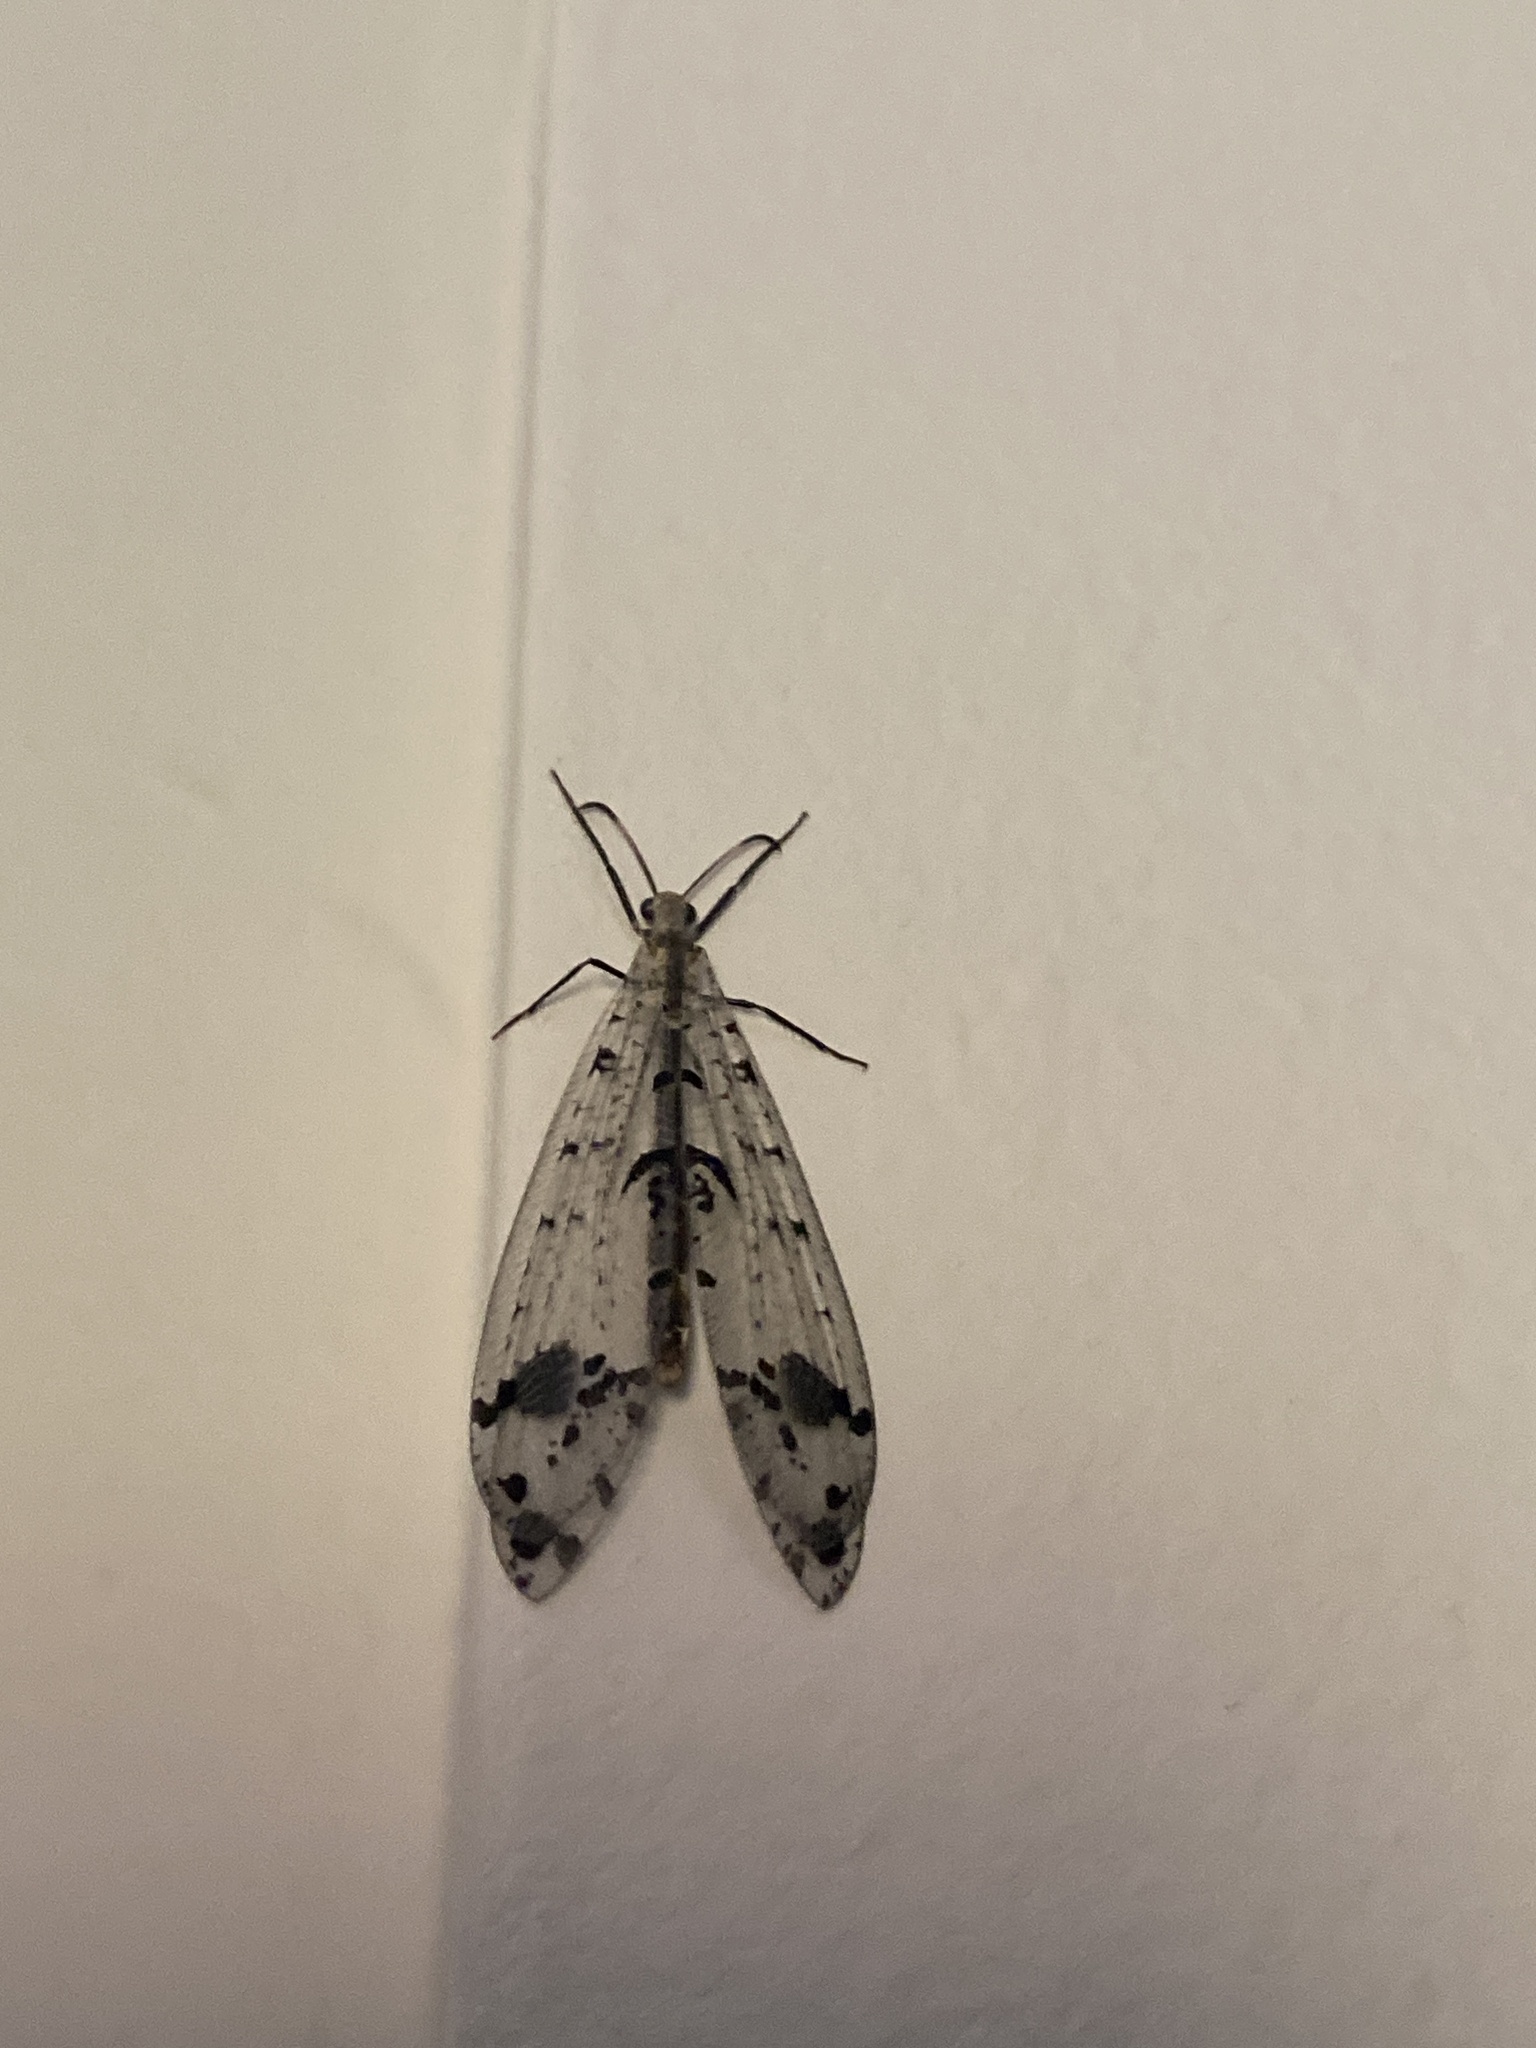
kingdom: Animalia
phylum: Arthropoda
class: Insecta
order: Neuroptera
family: Myrmeleontidae
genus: Dendroleon
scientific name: Dendroleon obsoletus
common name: Eastern spotted-winged antlion
